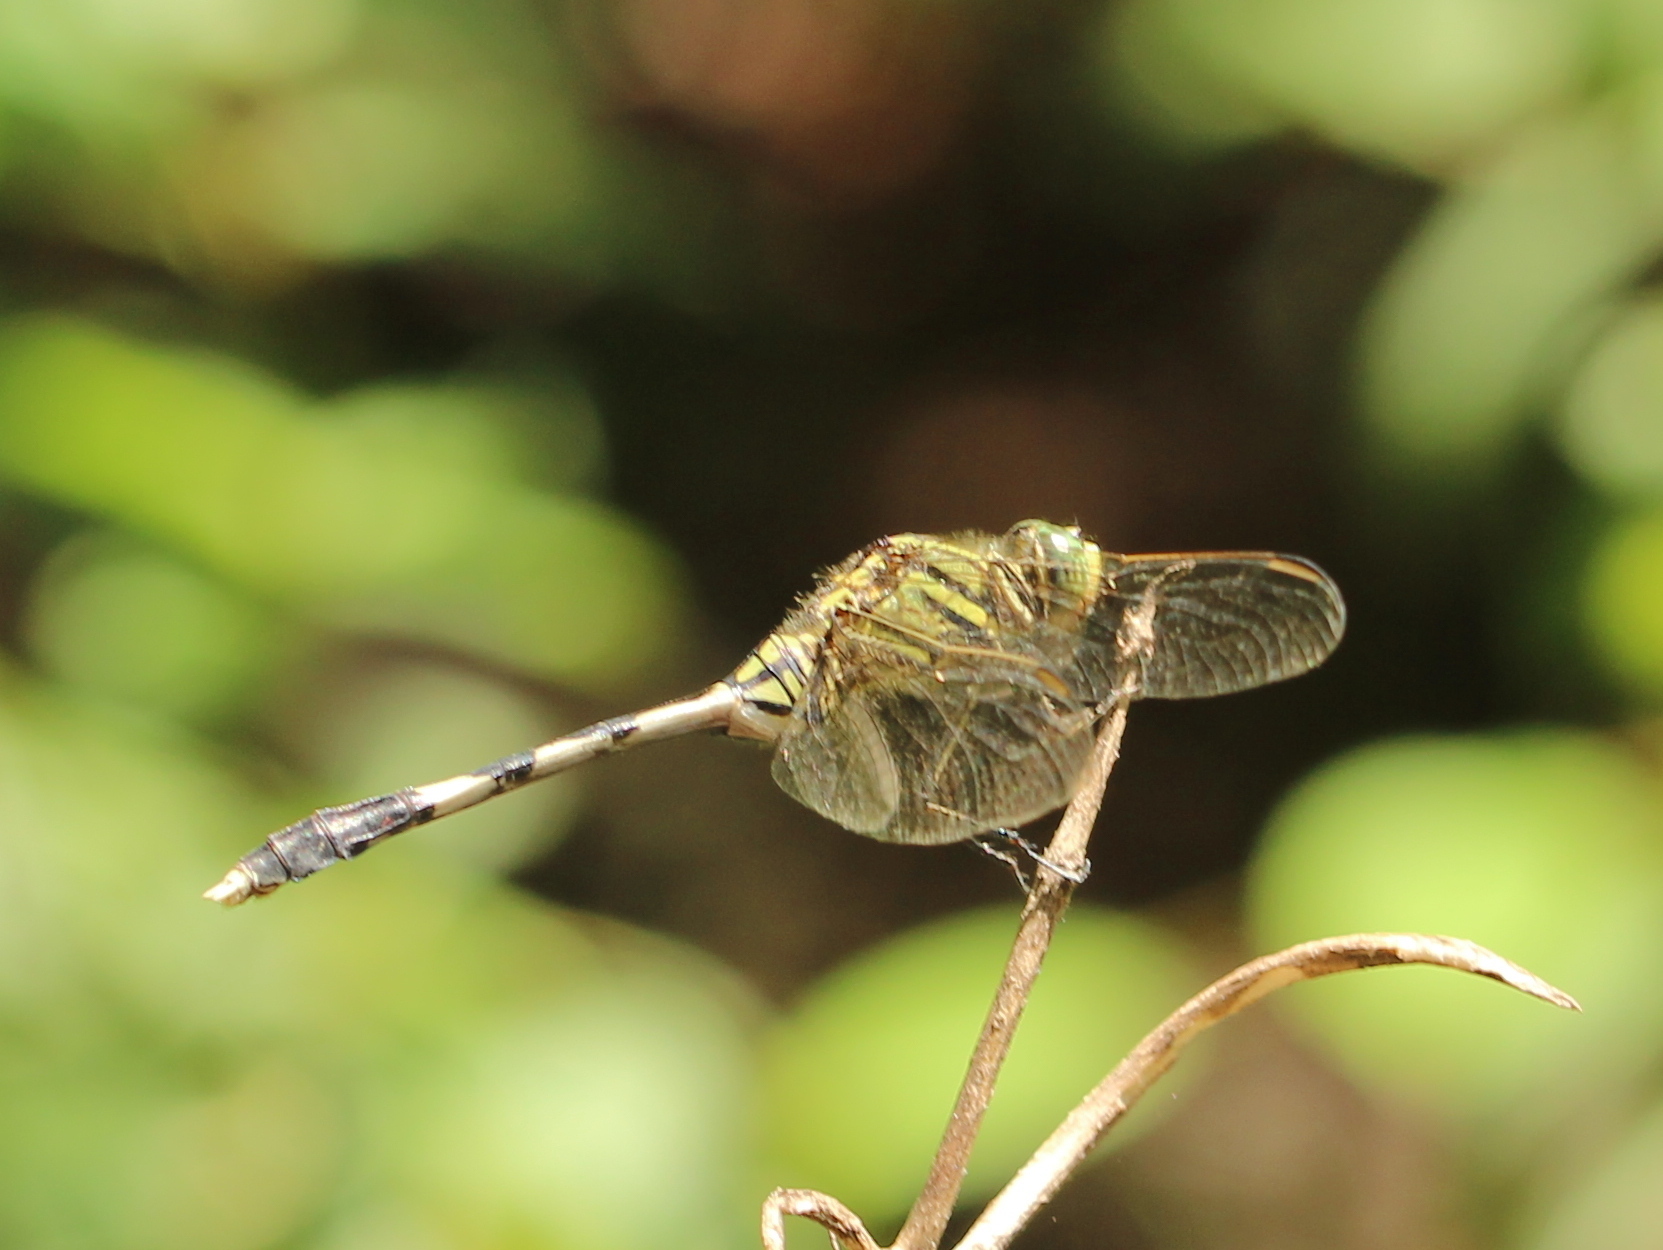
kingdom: Animalia
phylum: Arthropoda
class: Insecta
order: Odonata
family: Libellulidae
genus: Orthetrum
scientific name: Orthetrum sabina
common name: Slender skimmer
